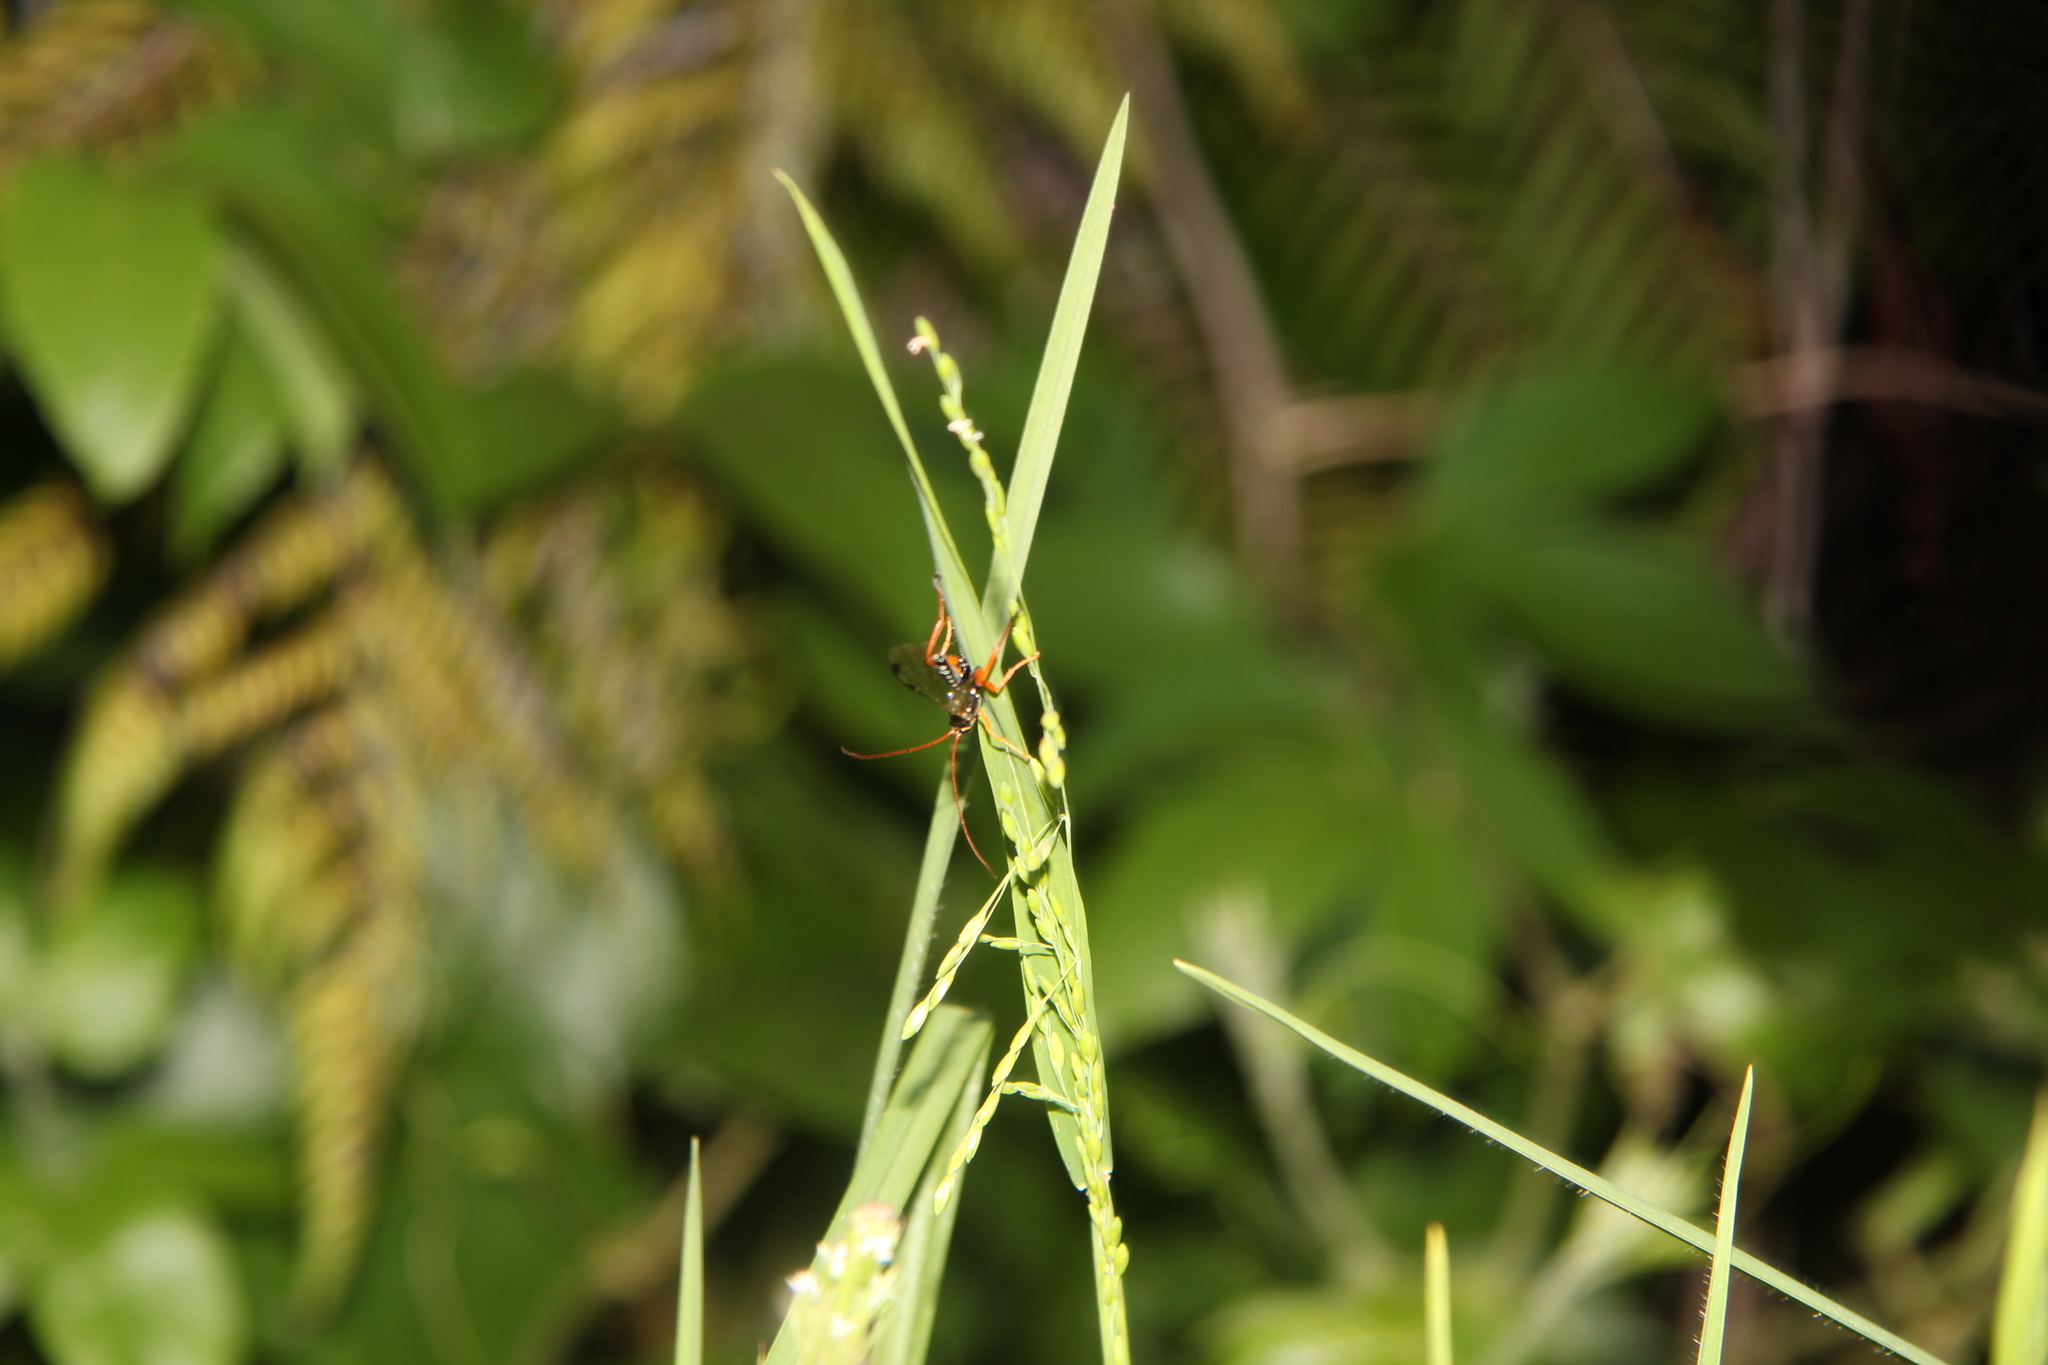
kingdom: Animalia
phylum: Arthropoda
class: Insecta
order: Hymenoptera
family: Ichneumonidae
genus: Echthromorpha
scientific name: Echthromorpha intricatoria
